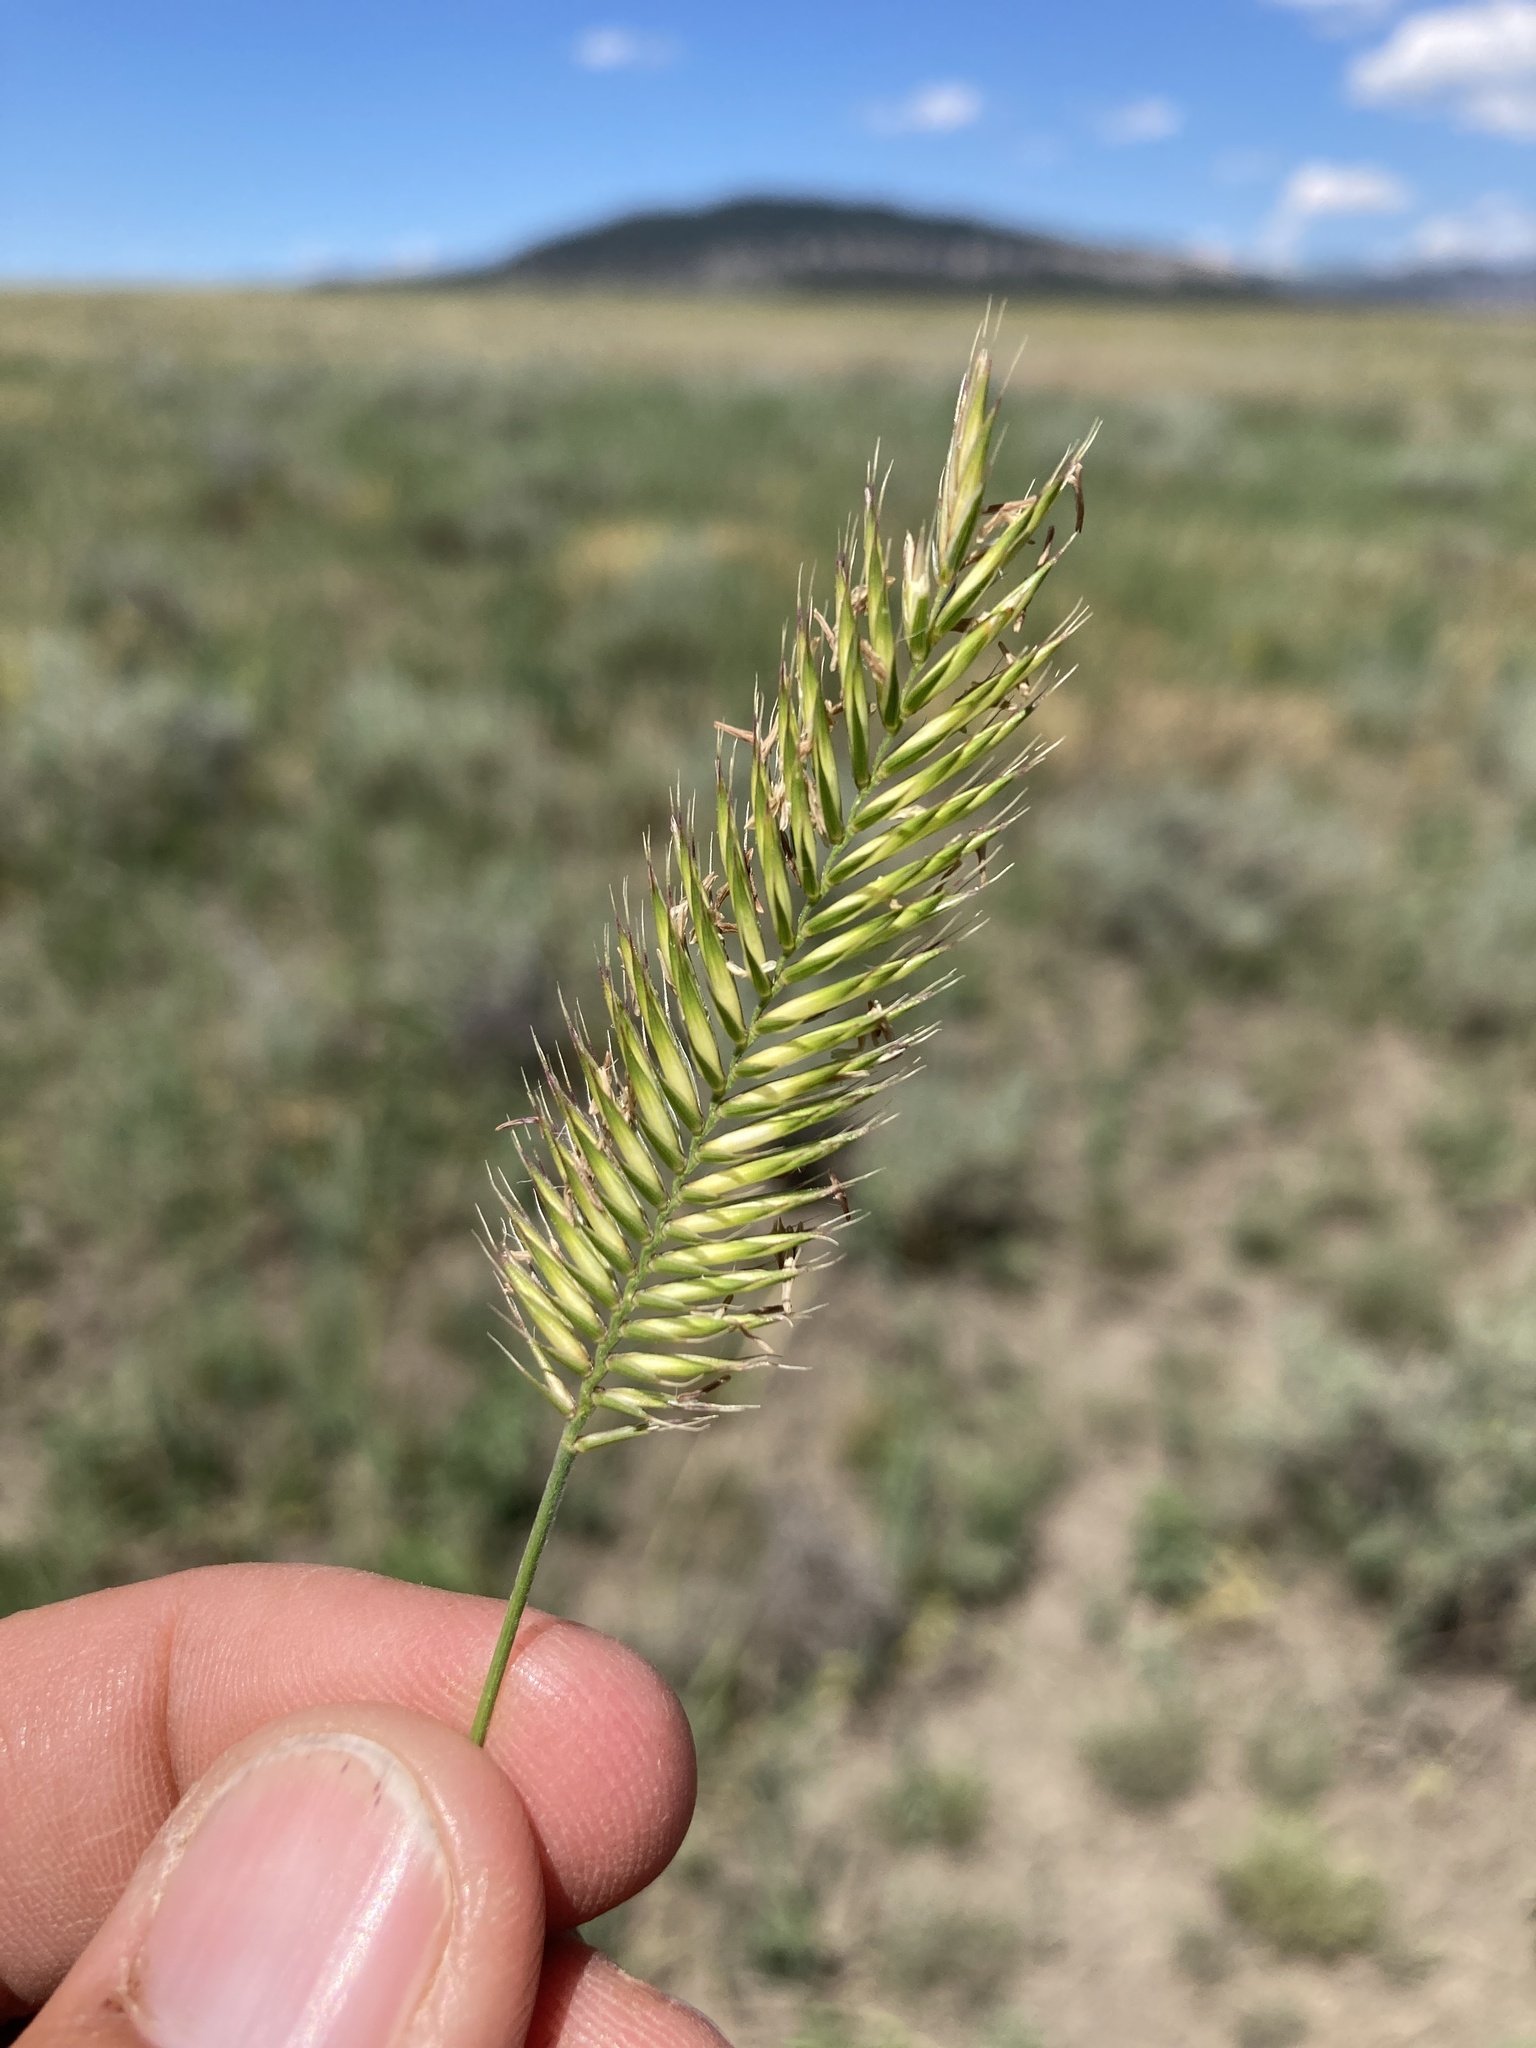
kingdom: Plantae
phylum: Tracheophyta
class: Liliopsida
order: Poales
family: Poaceae
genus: Agropyron
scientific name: Agropyron cristatum
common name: Crested wheatgrass
